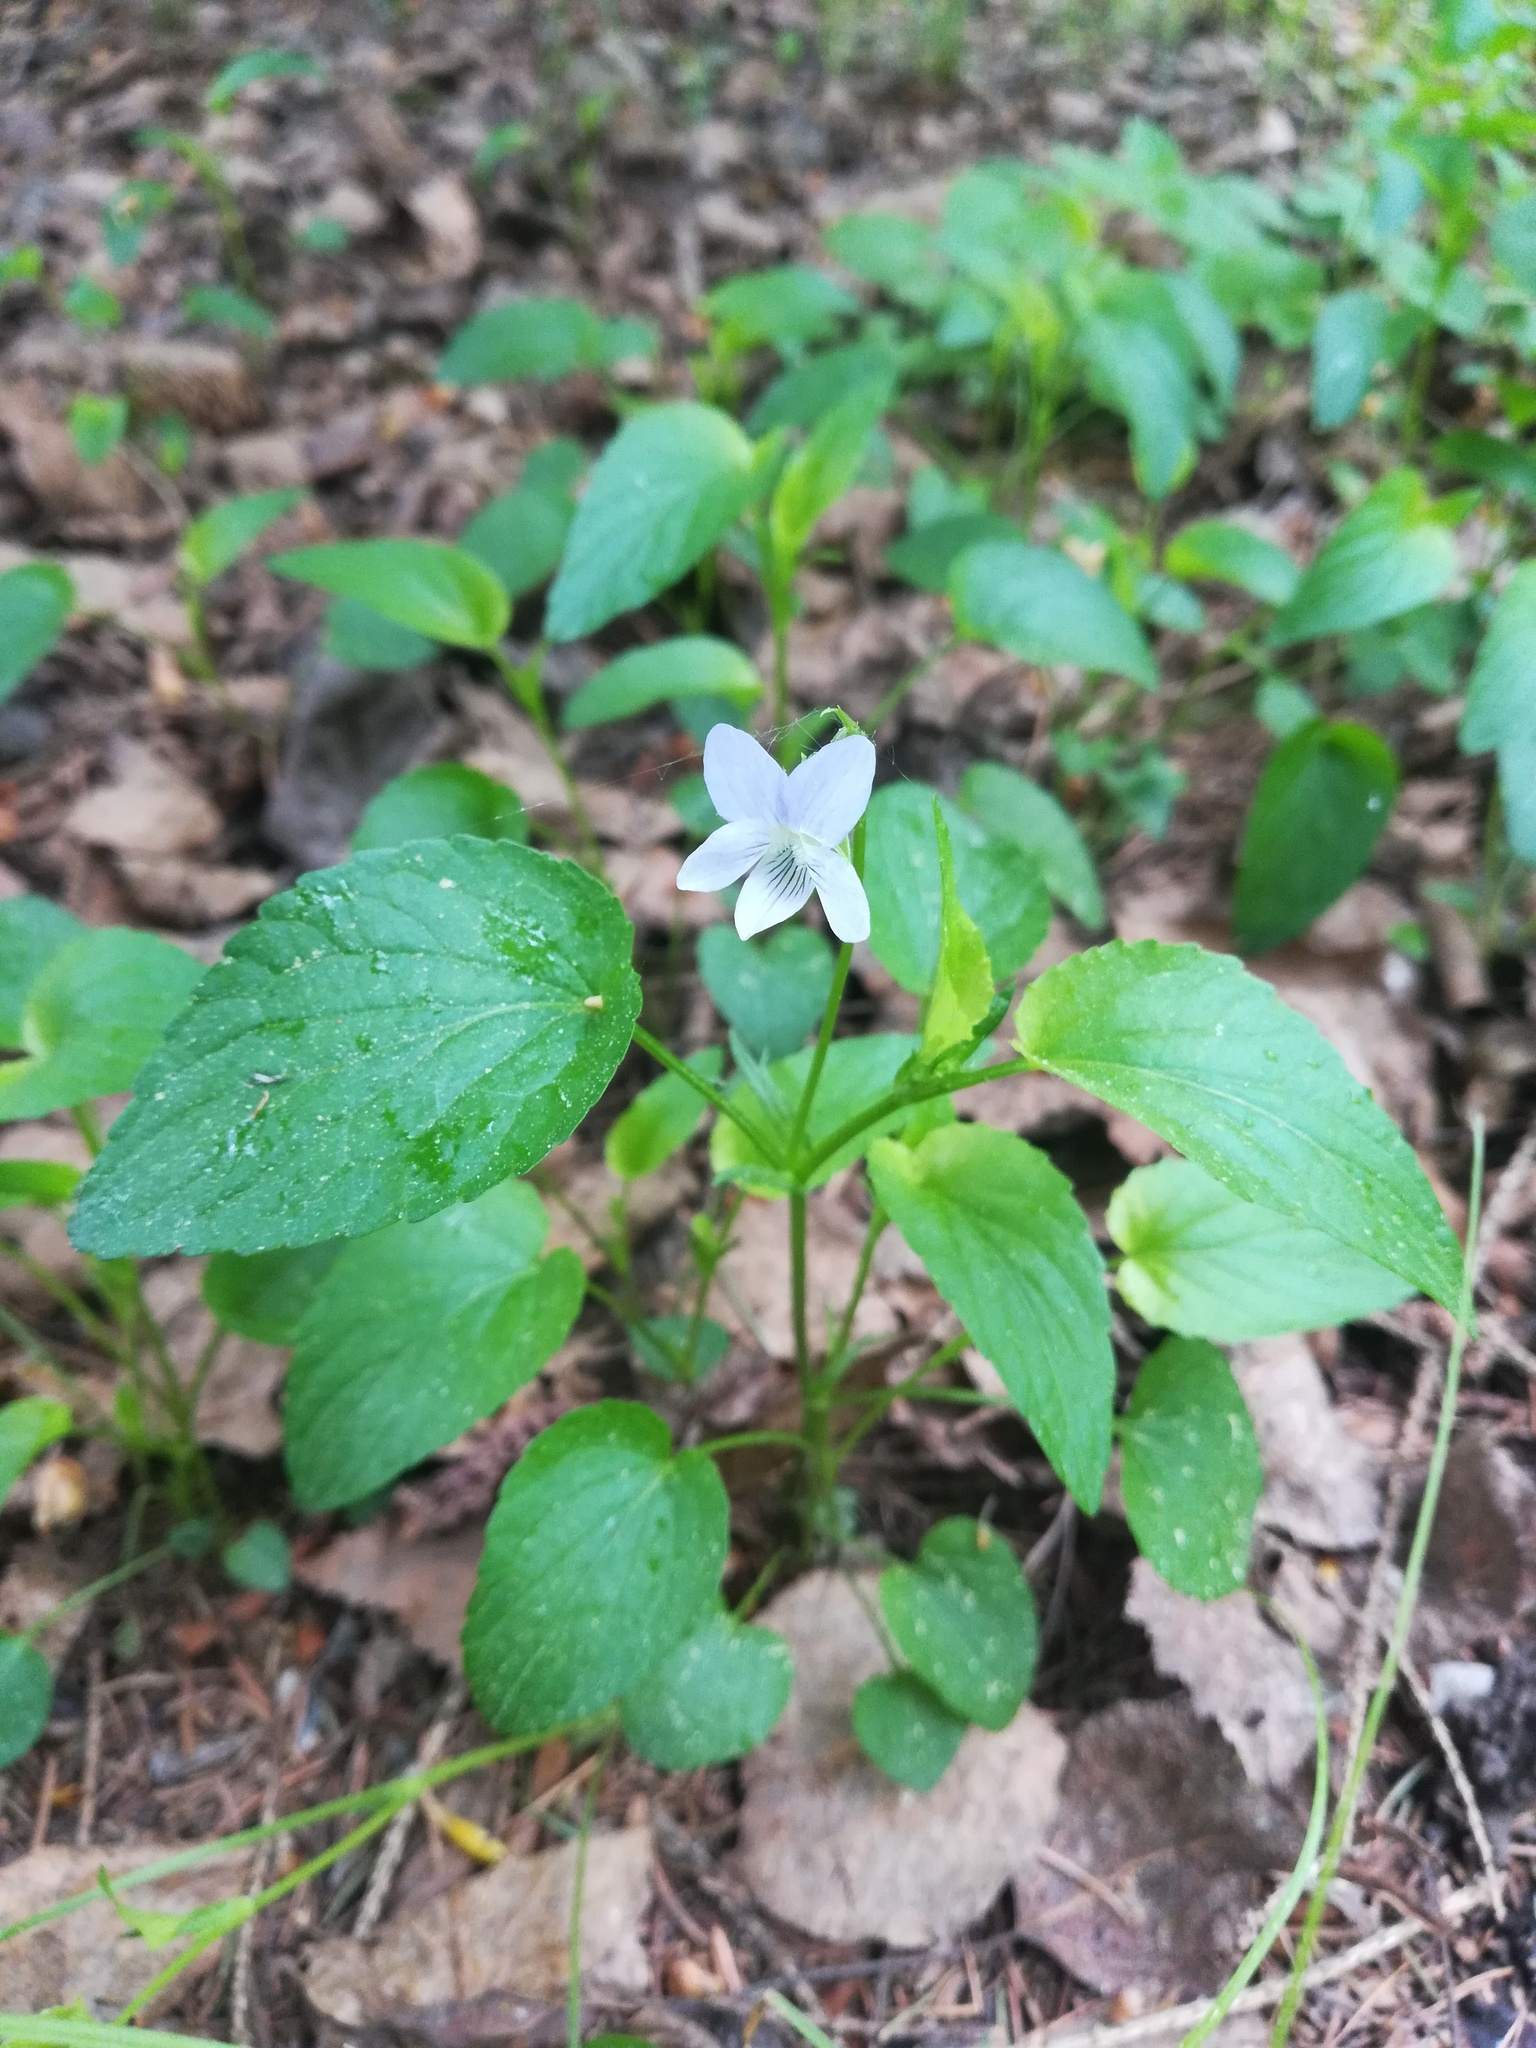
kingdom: Plantae
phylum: Tracheophyta
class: Magnoliopsida
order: Malpighiales
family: Violaceae
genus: Viola
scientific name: Viola
